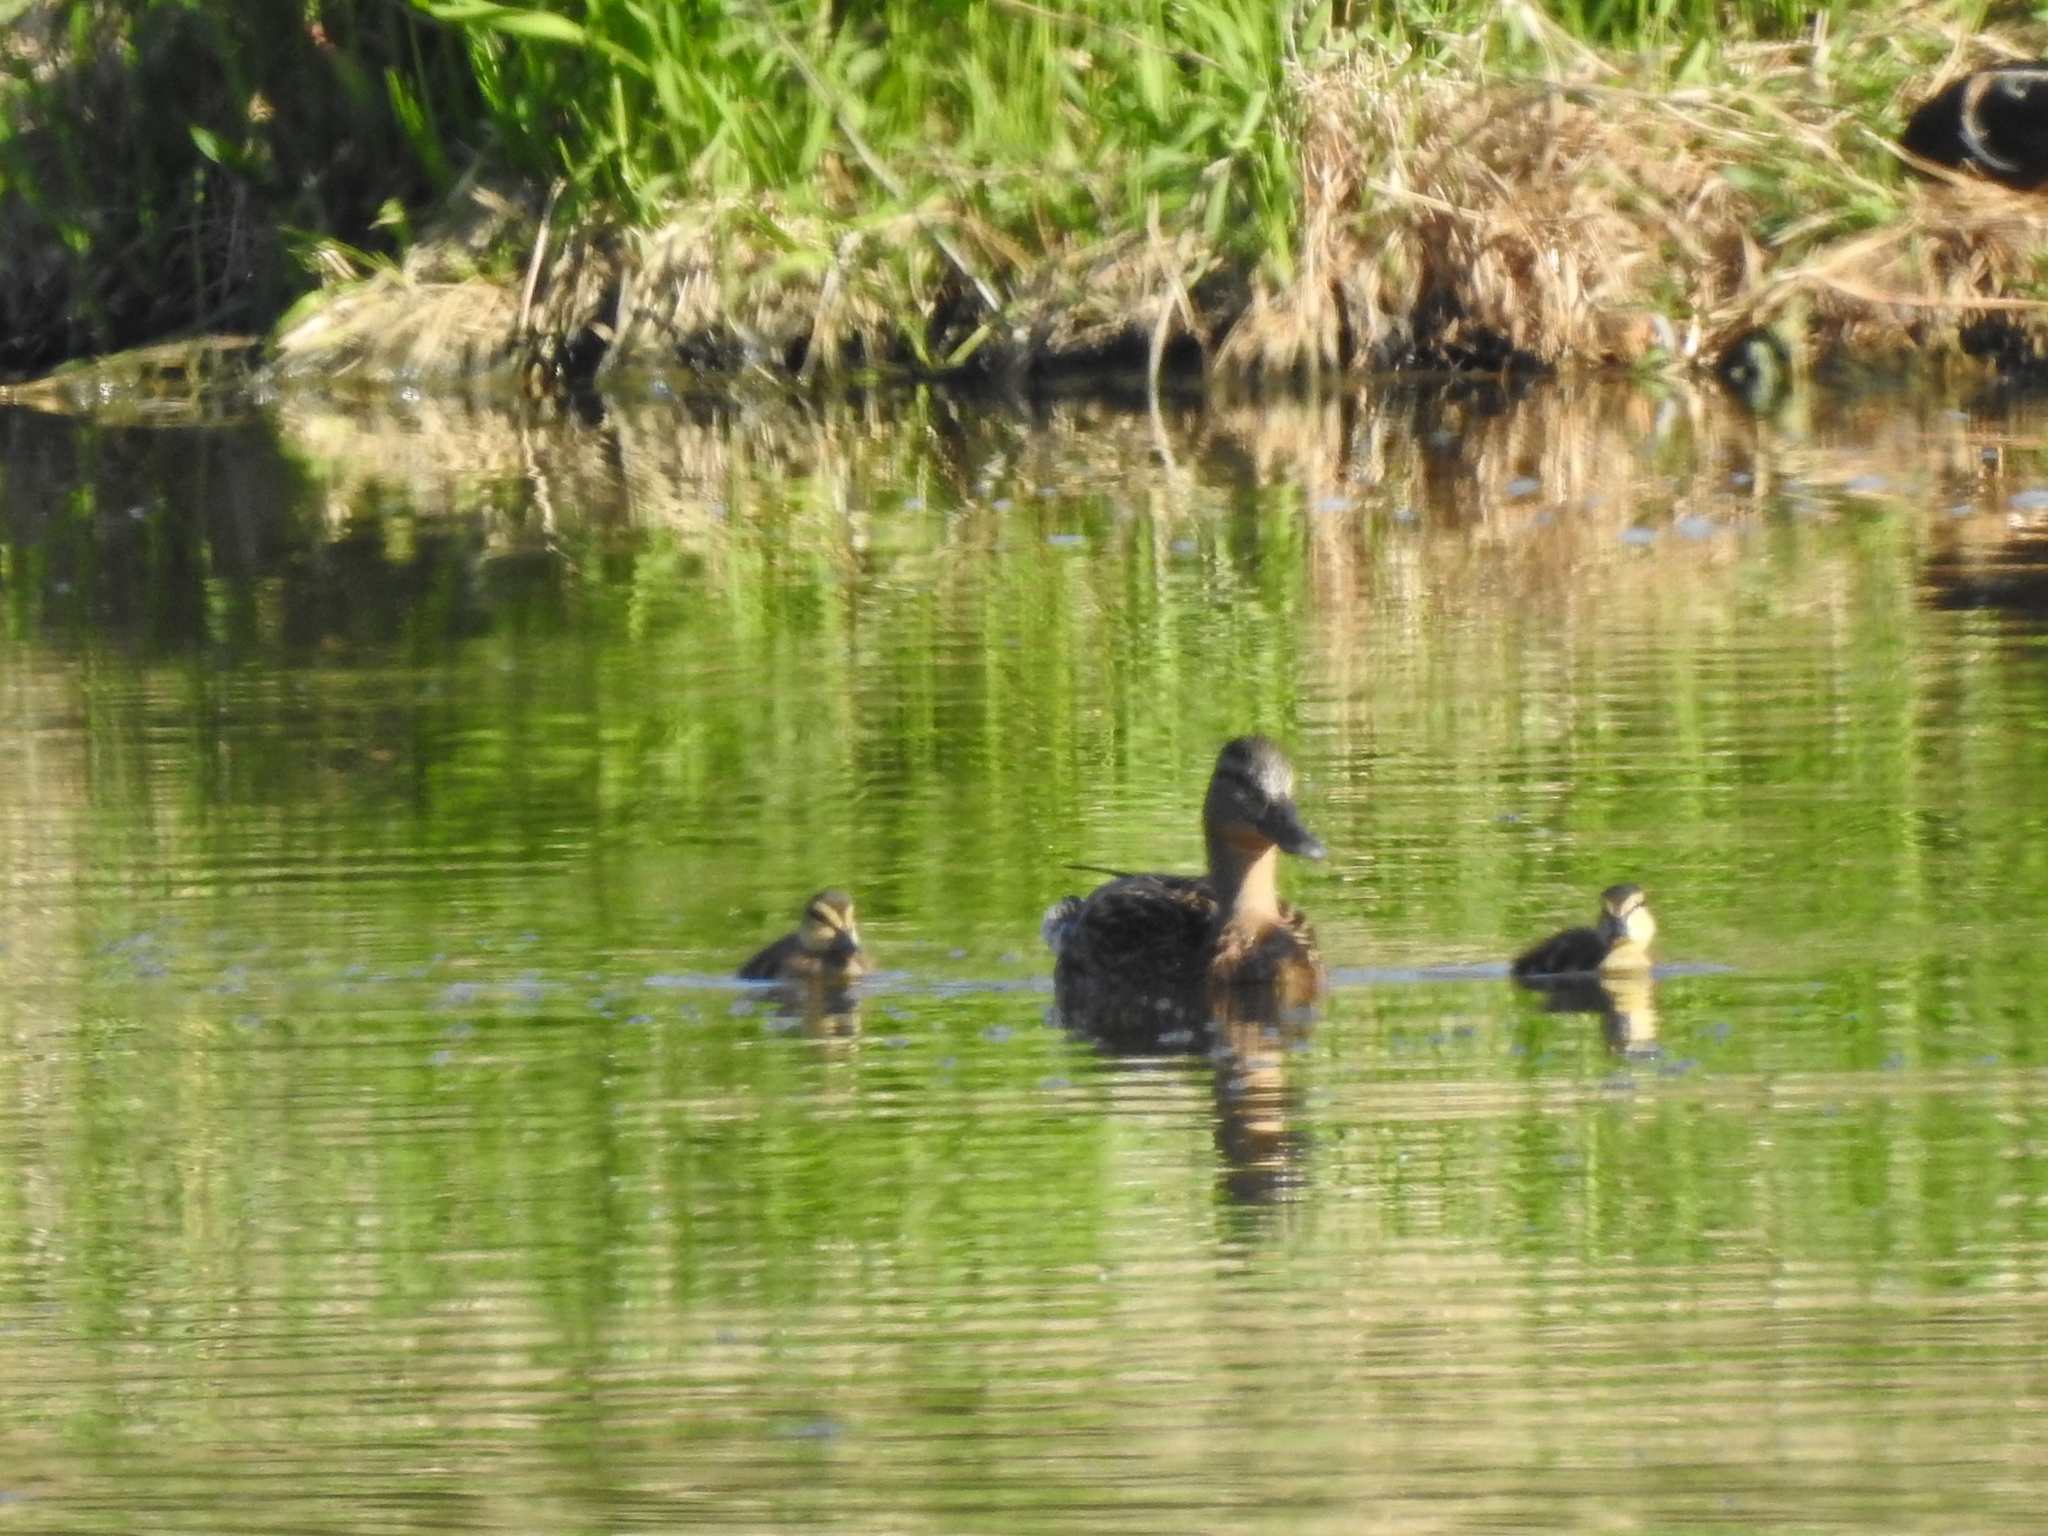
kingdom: Animalia
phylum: Chordata
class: Aves
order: Anseriformes
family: Anatidae
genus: Anas
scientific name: Anas platyrhynchos
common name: Mallard
